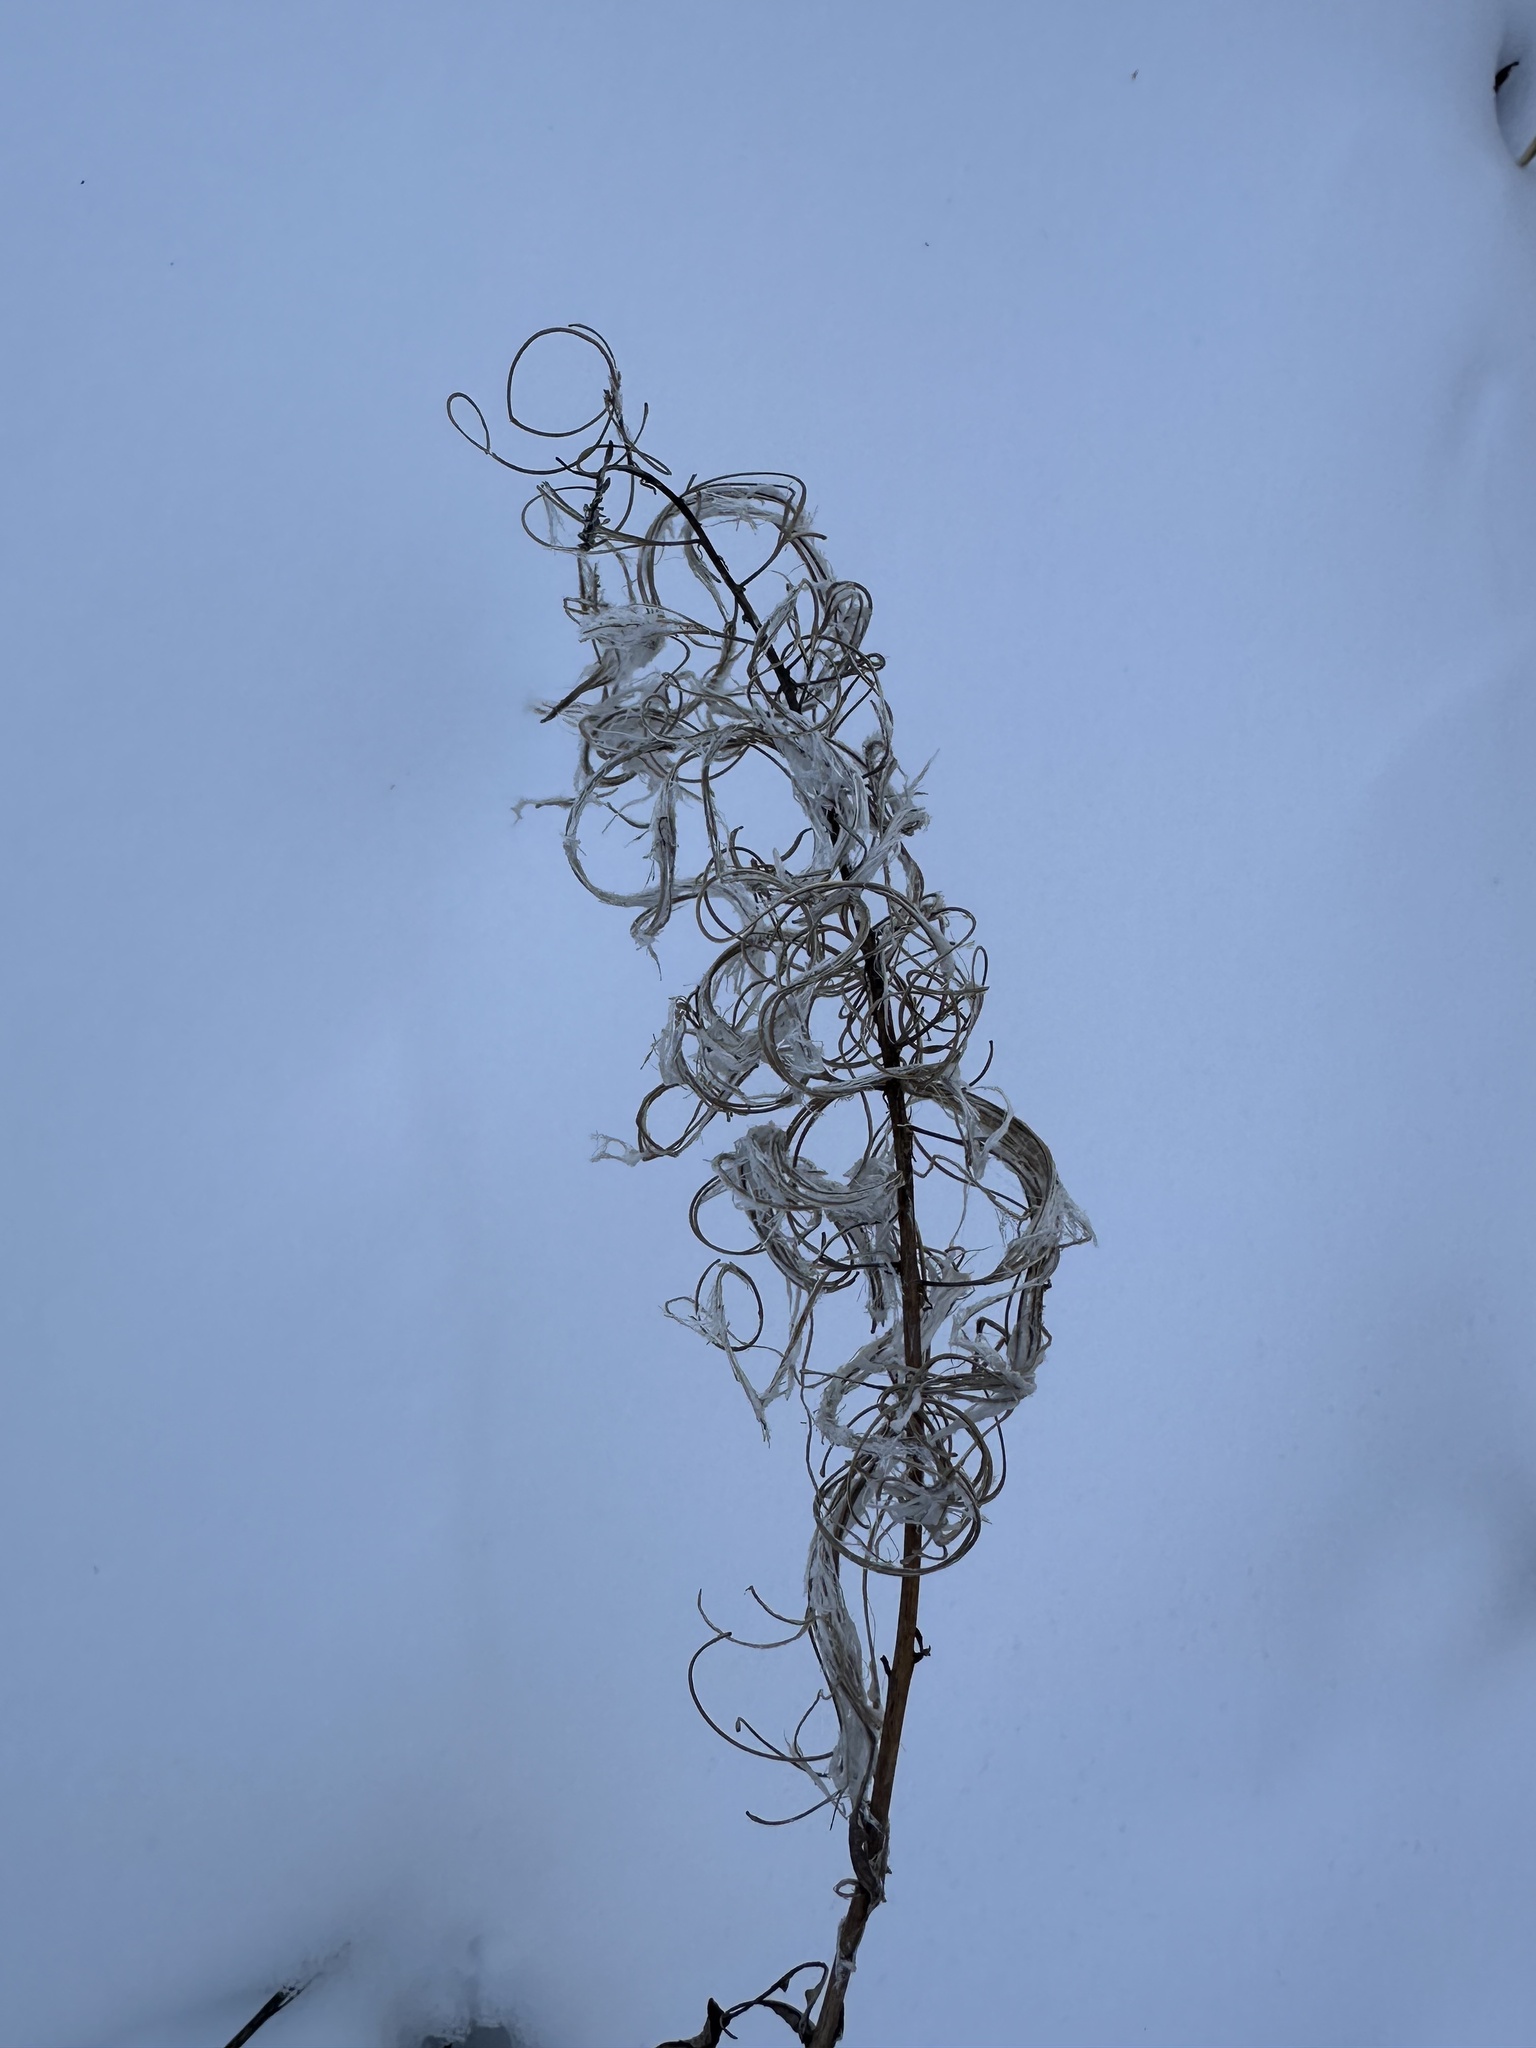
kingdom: Plantae
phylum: Tracheophyta
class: Magnoliopsida
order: Myrtales
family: Onagraceae
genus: Chamaenerion
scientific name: Chamaenerion angustifolium
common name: Fireweed
